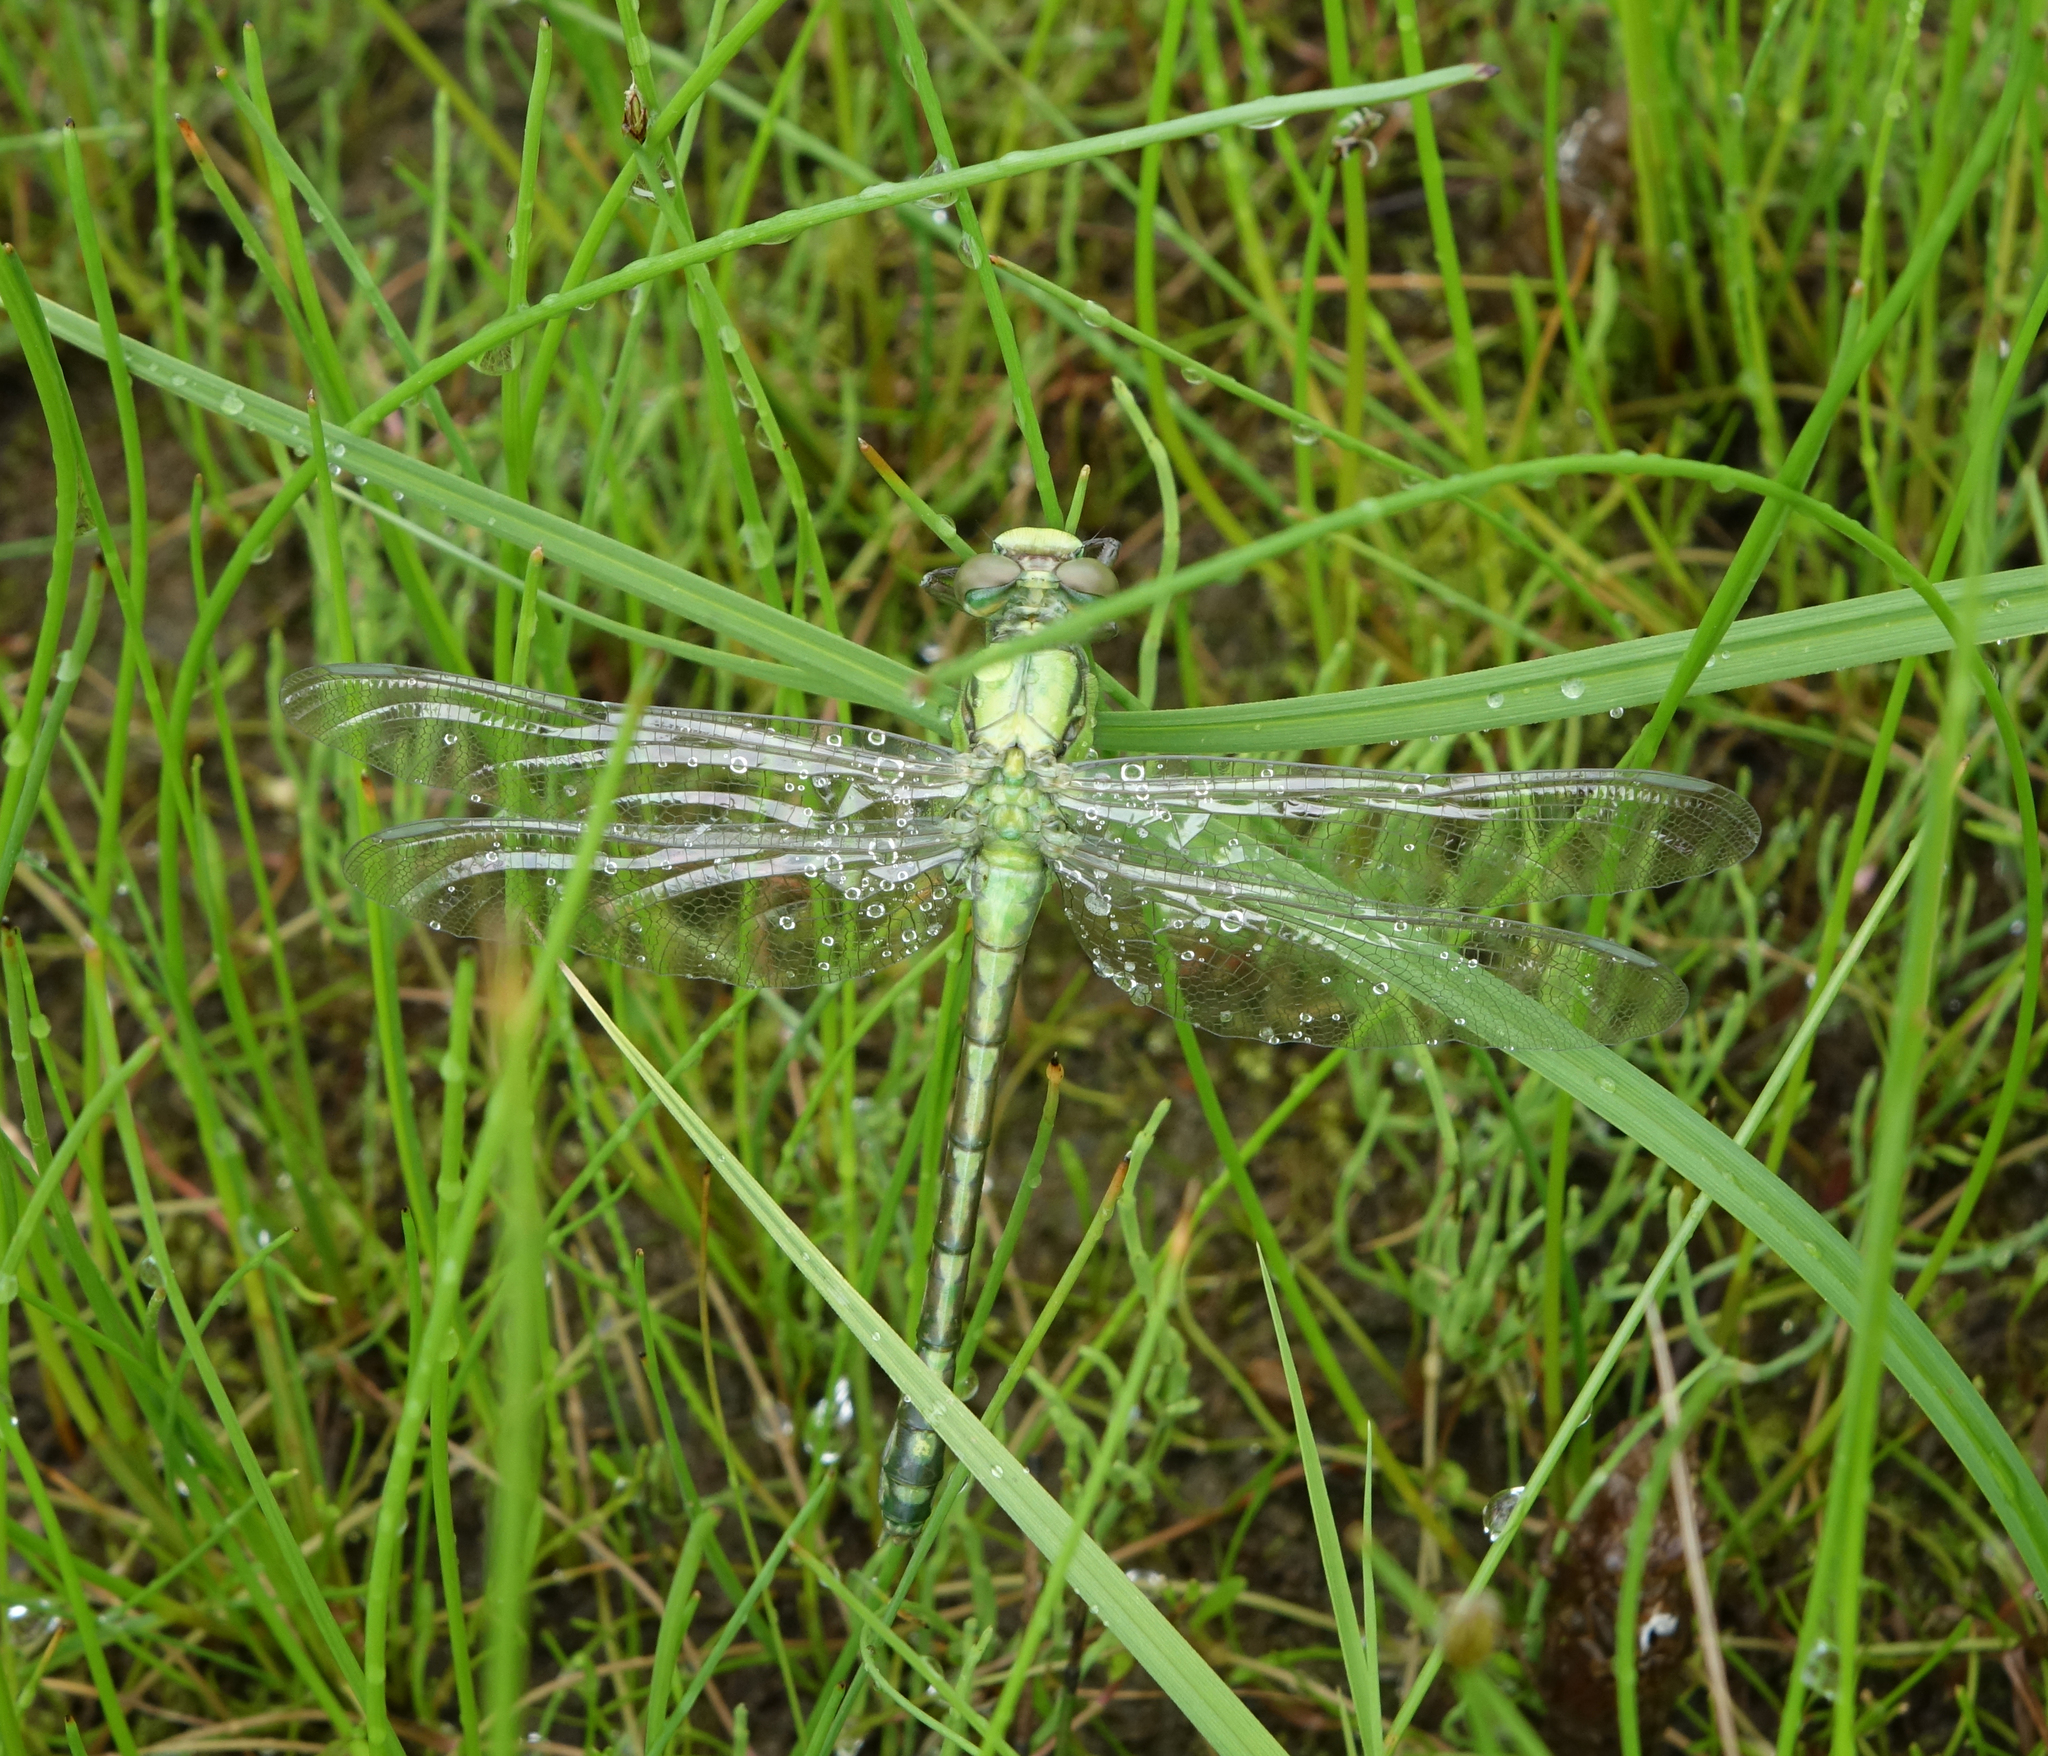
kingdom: Animalia
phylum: Arthropoda
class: Insecta
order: Odonata
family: Gomphidae
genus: Ophiogomphus
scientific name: Ophiogomphus obscurus
